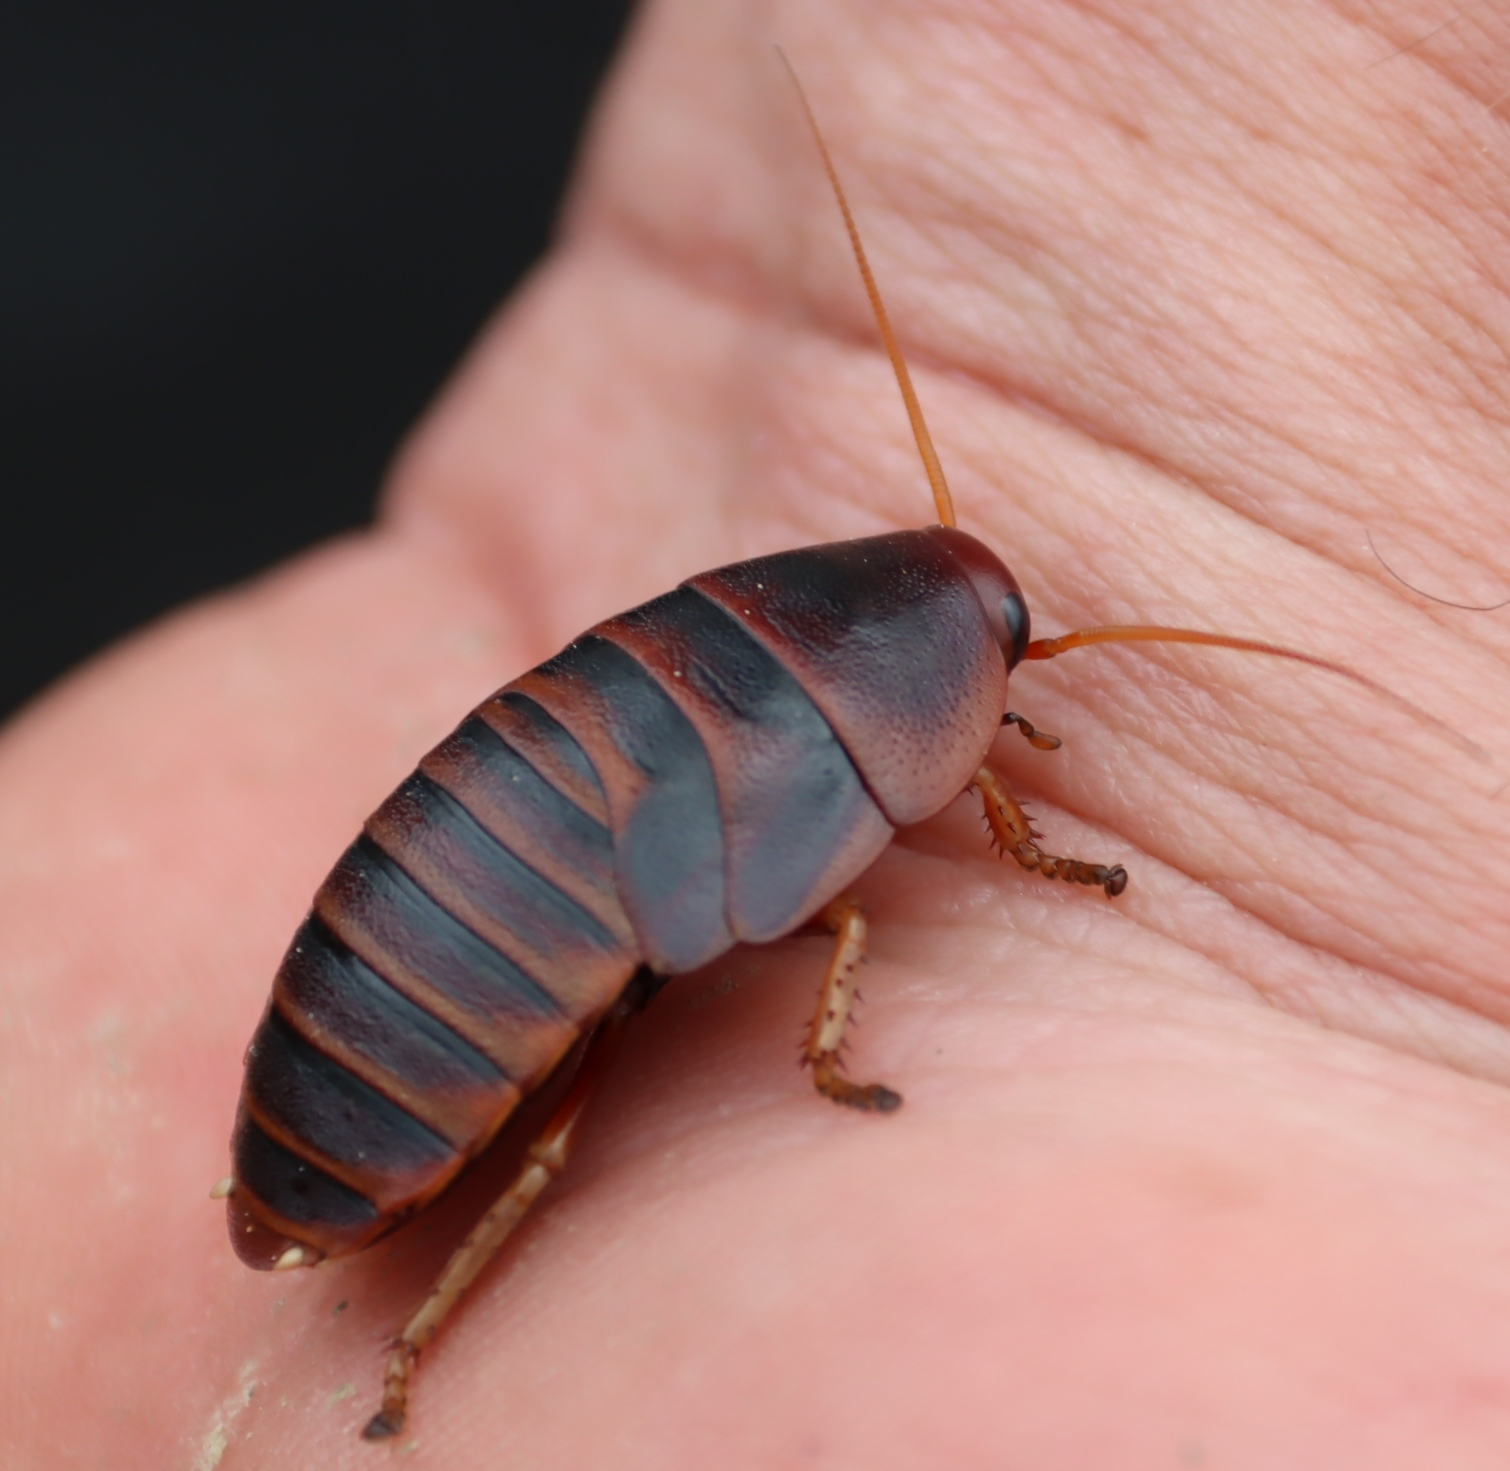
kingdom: Animalia
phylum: Arthropoda
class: Insecta
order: Blattodea
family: Blaberidae
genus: Aptera
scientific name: Aptera fusca
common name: Cape mountain cockroach
